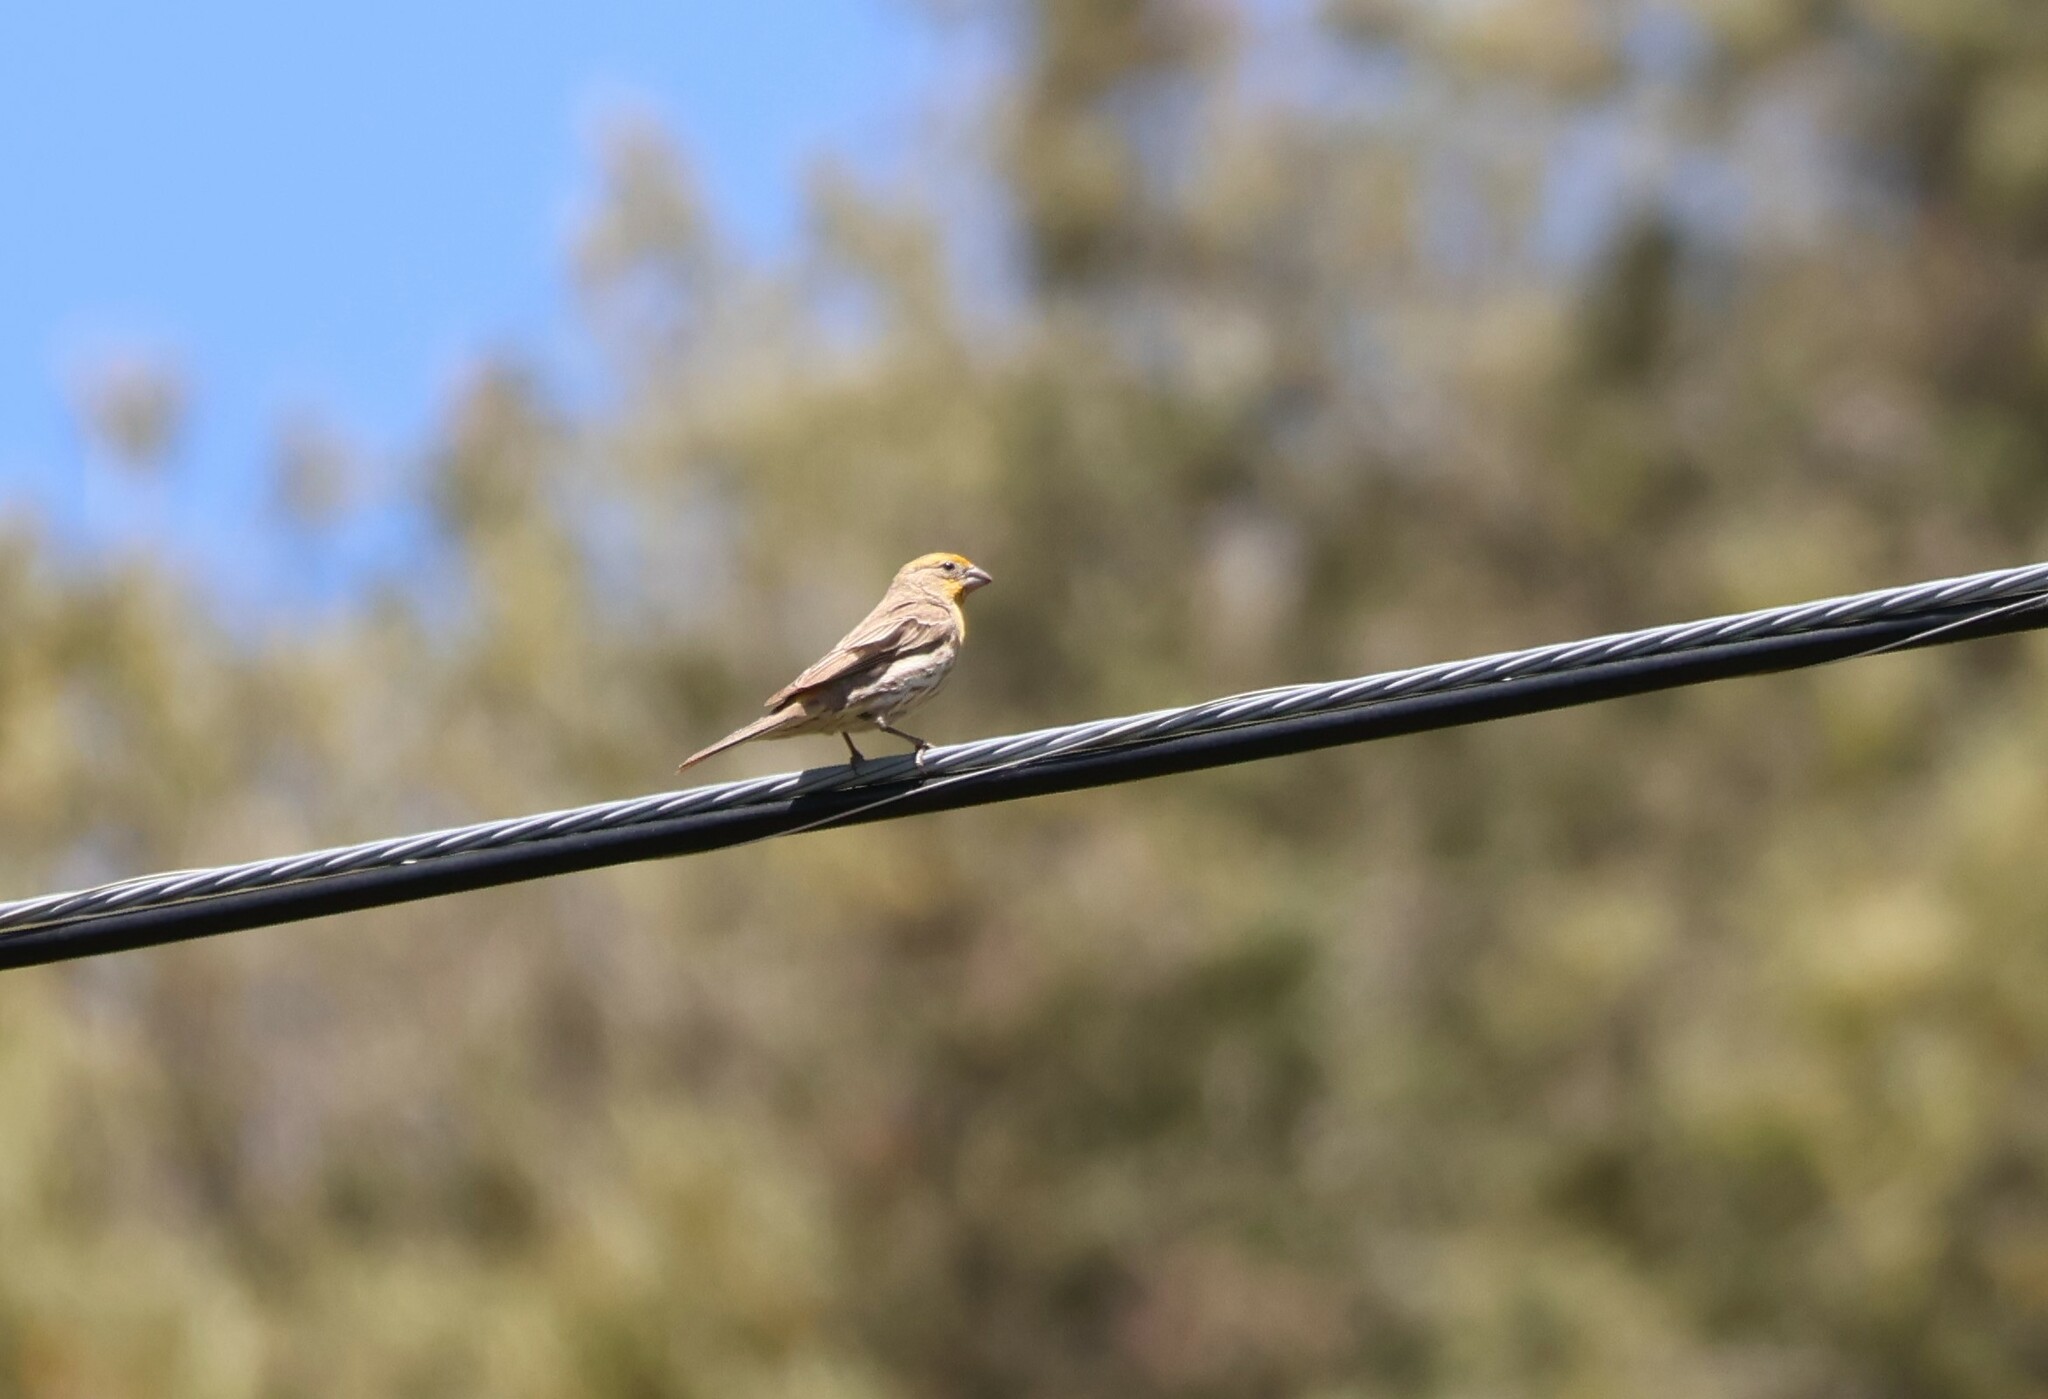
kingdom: Animalia
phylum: Chordata
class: Aves
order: Passeriformes
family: Fringillidae
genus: Haemorhous
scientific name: Haemorhous mexicanus
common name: House finch
